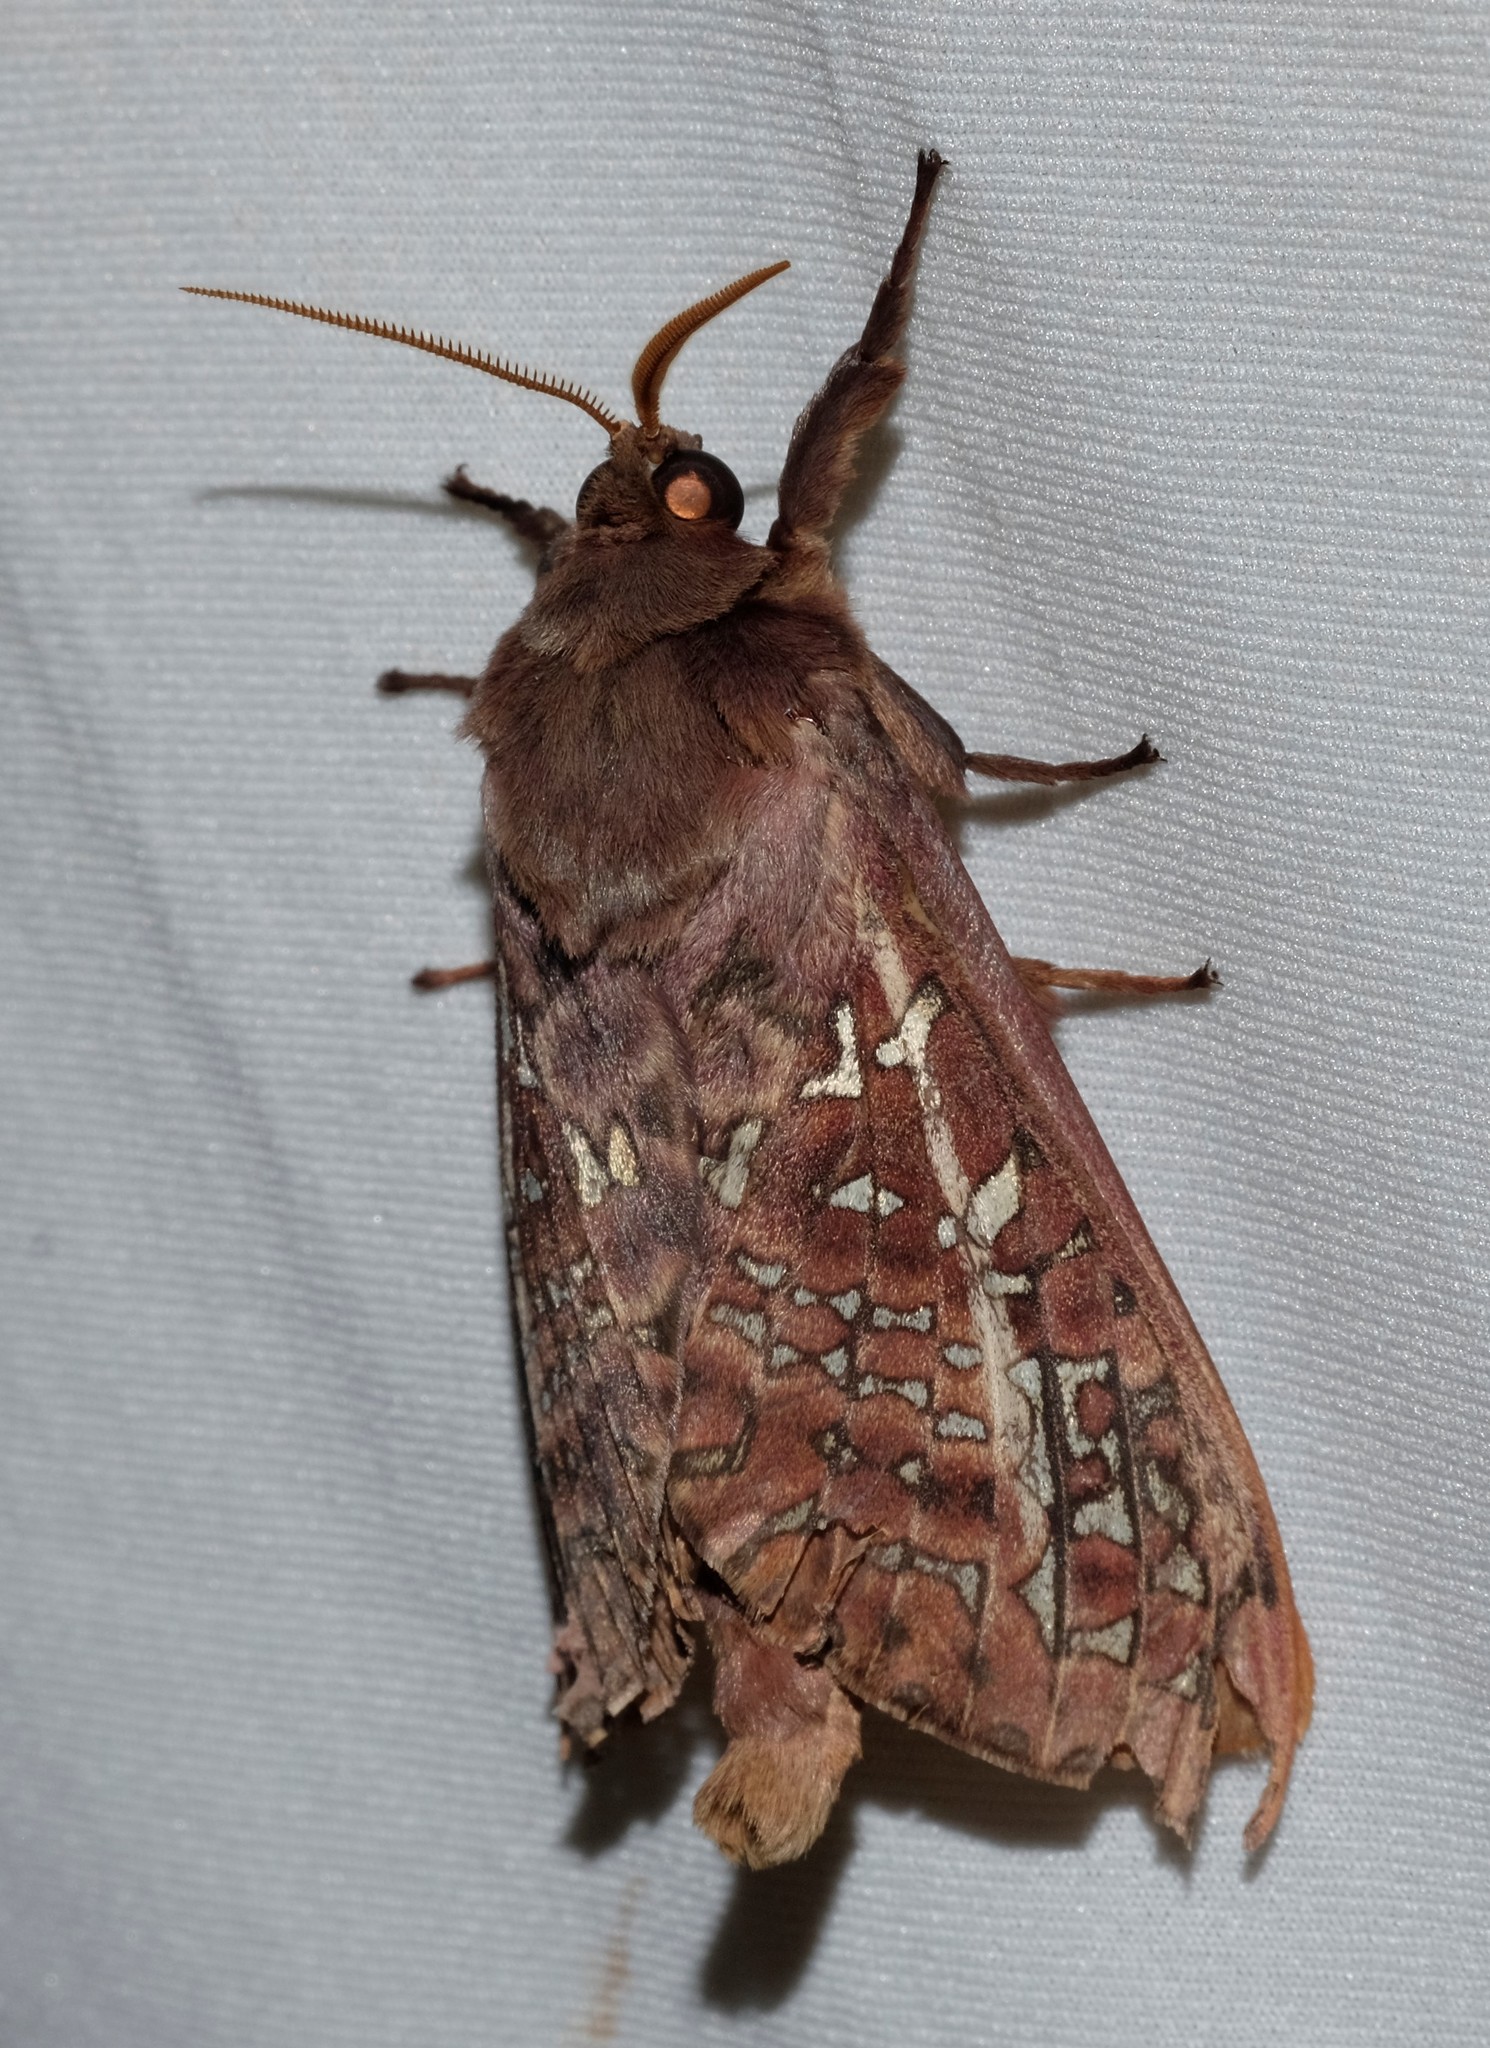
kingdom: Animalia
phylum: Arthropoda
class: Insecta
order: Lepidoptera
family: Hepialidae
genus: Oxycanus
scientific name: Oxycanus australis
